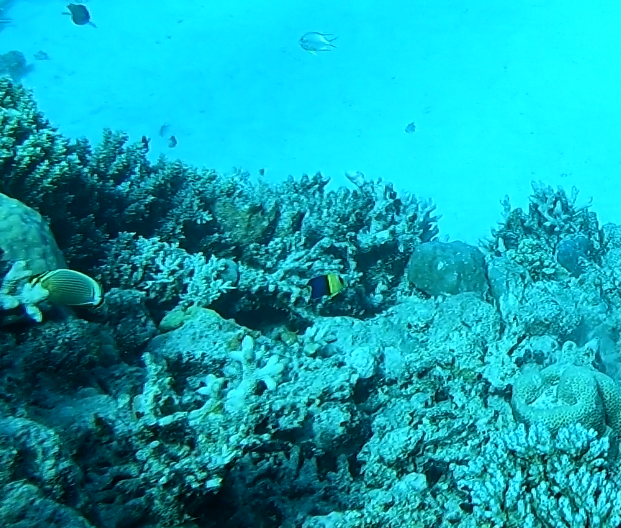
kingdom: Animalia
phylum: Chordata
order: Perciformes
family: Pomacanthidae
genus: Centropyge
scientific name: Centropyge bicolor
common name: Bicolor angelfish
